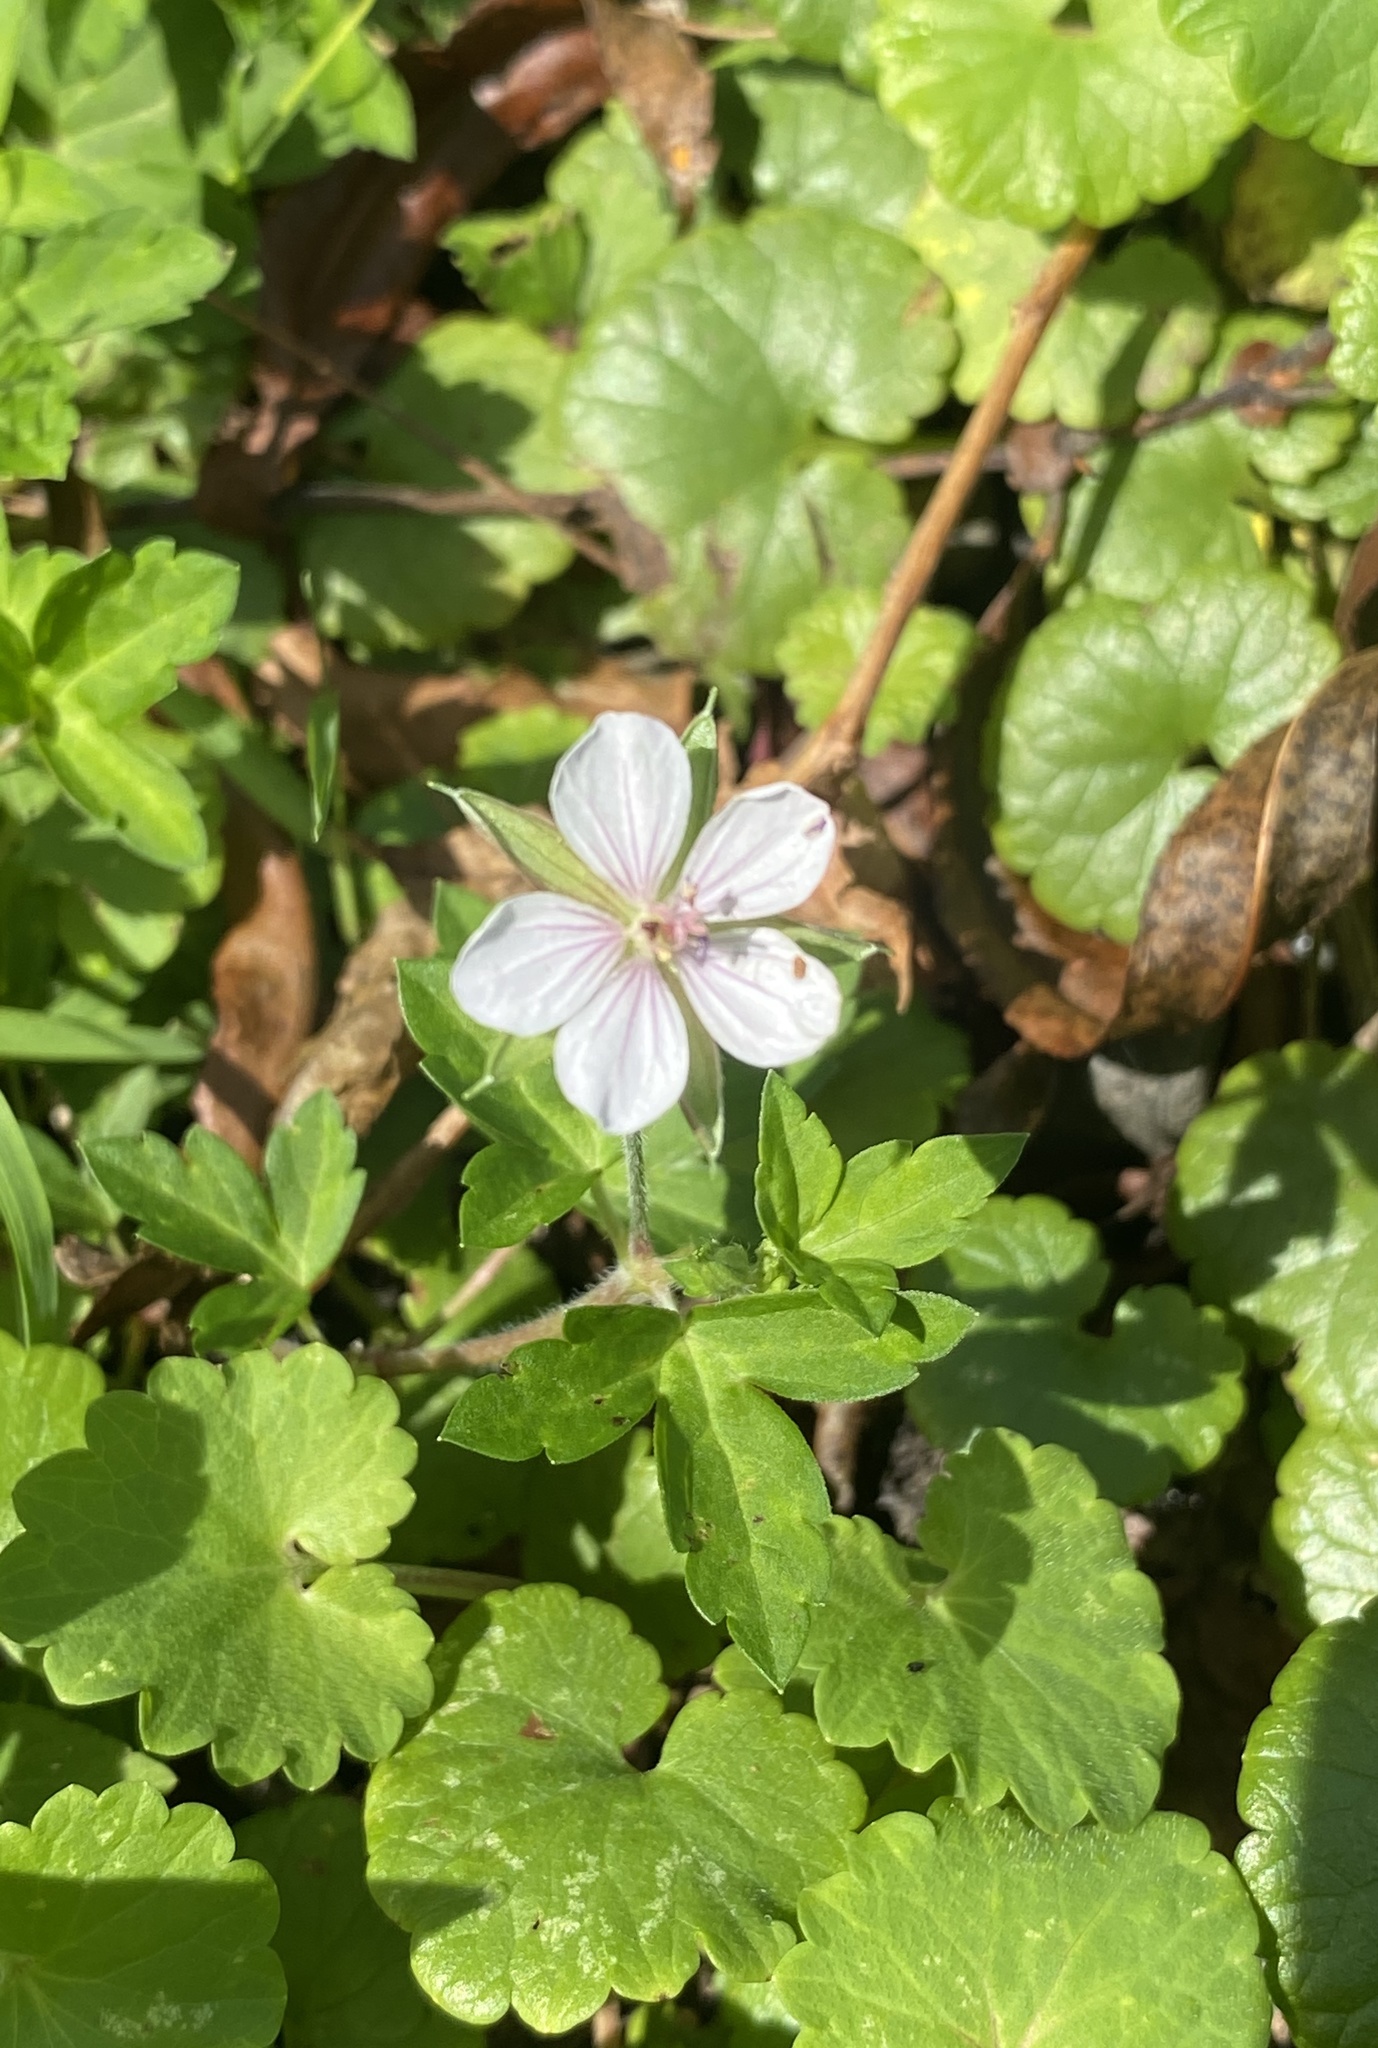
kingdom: Plantae
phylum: Tracheophyta
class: Magnoliopsida
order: Geraniales
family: Geraniaceae
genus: Geranium
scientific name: Geranium thunbergii
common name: Dewdrop crane's-bill
